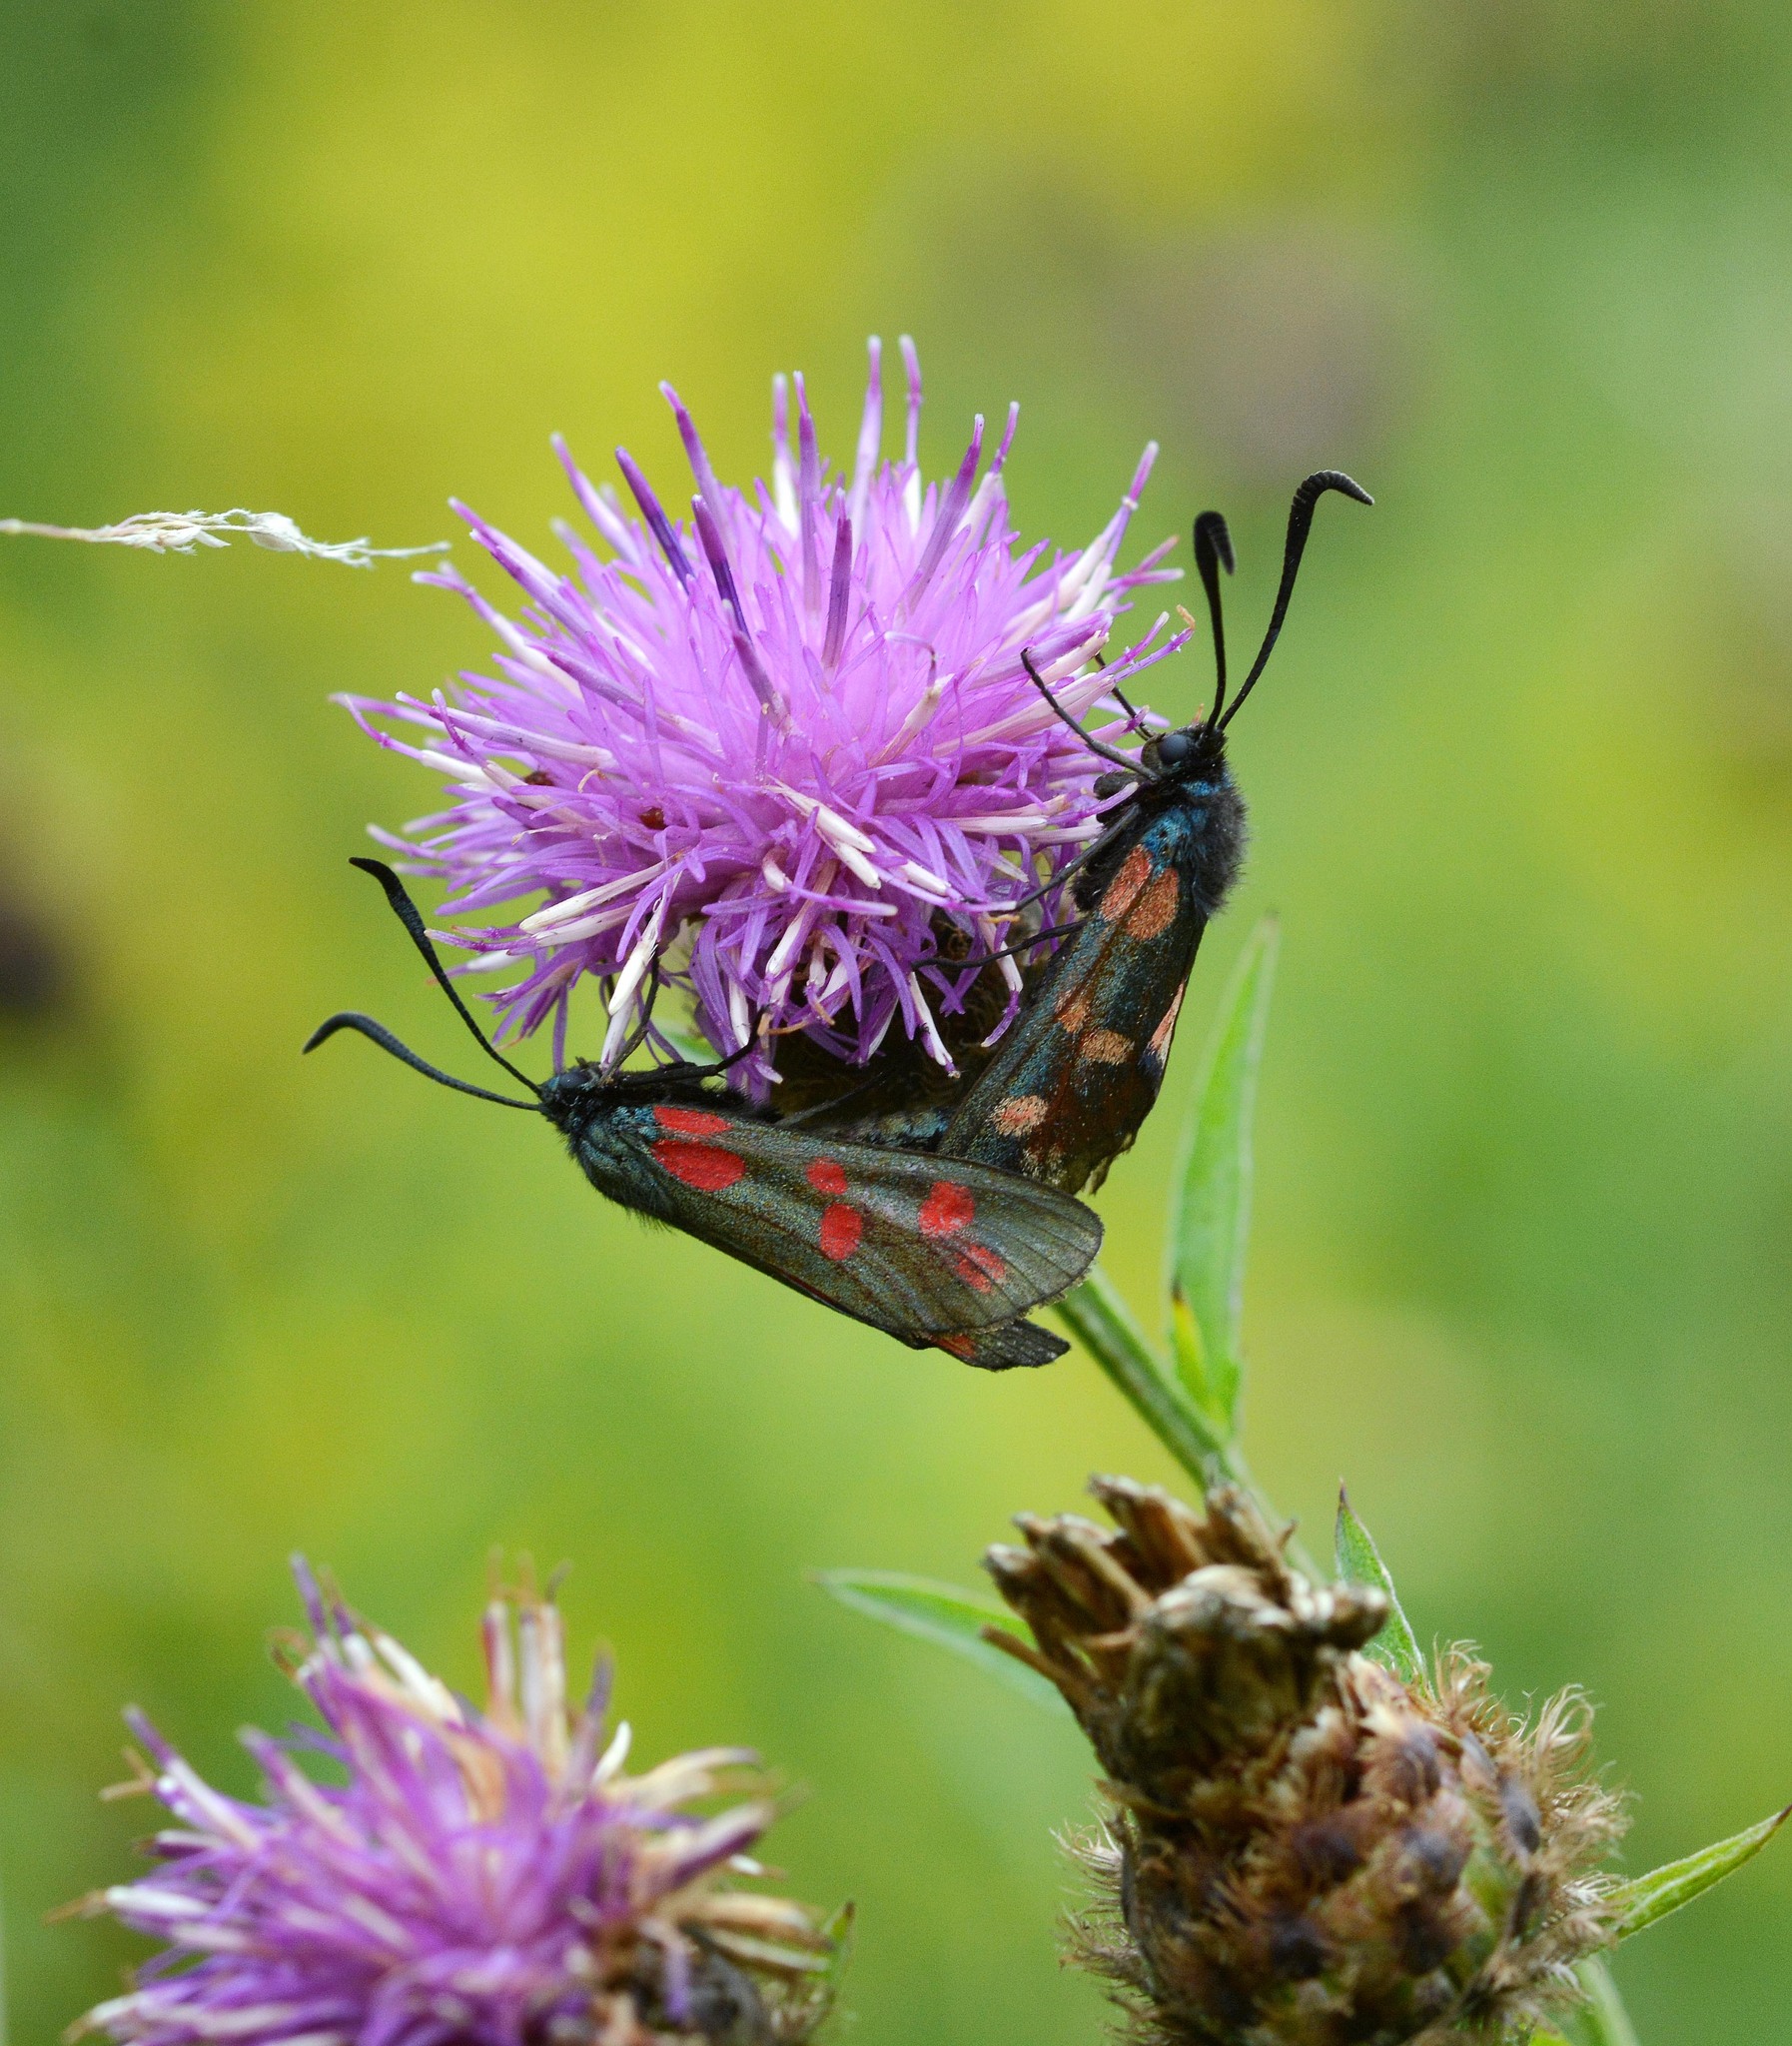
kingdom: Animalia
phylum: Arthropoda
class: Insecta
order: Lepidoptera
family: Zygaenidae
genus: Zygaena
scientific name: Zygaena filipendulae
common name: Six-spot burnet
